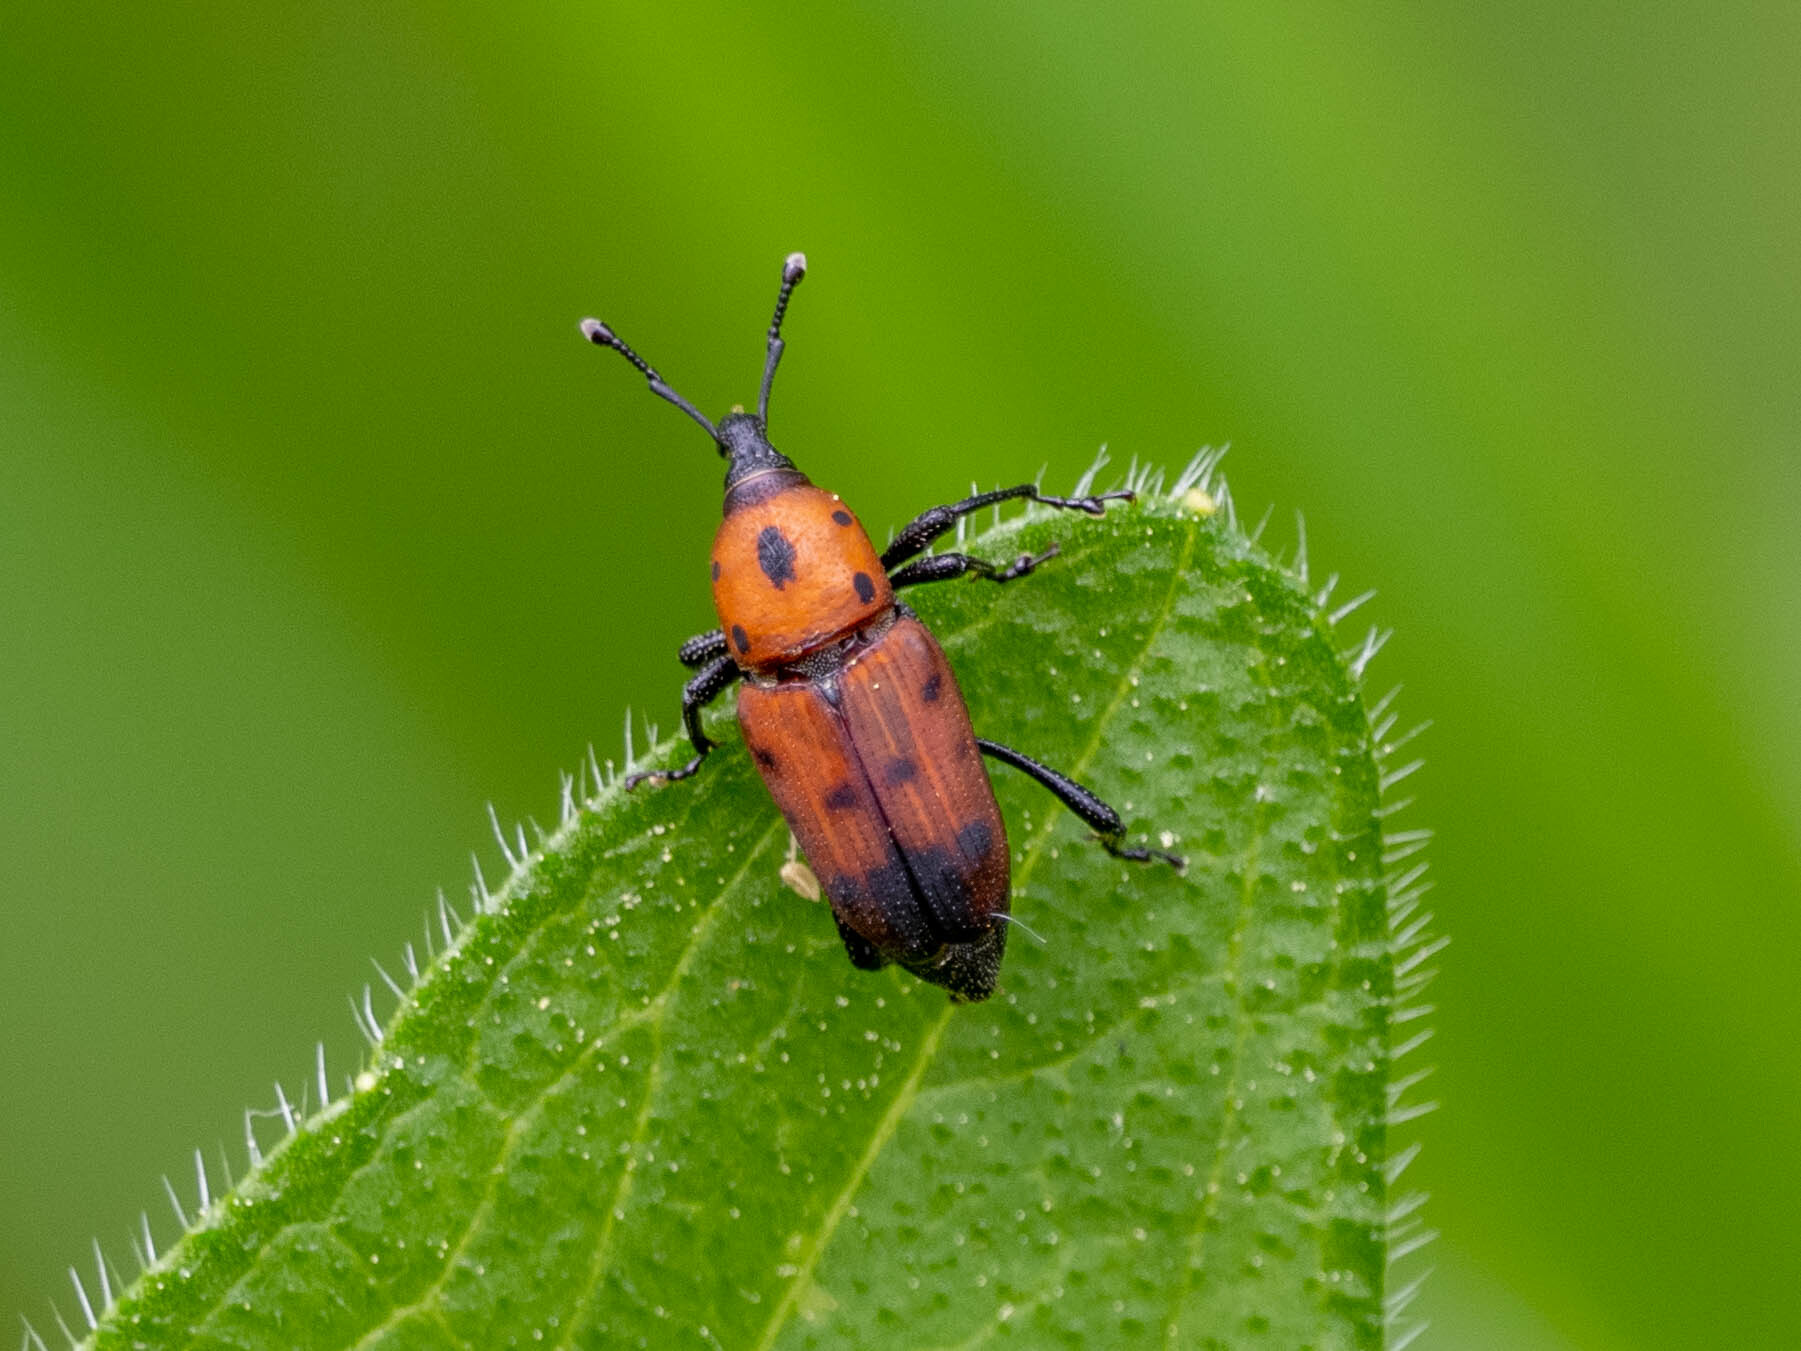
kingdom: Animalia
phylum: Arthropoda
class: Insecta
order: Coleoptera
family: Dryophthoridae
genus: Rhodobaenus
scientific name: Rhodobaenus quinquepunctatus
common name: Cocklebur weevil
